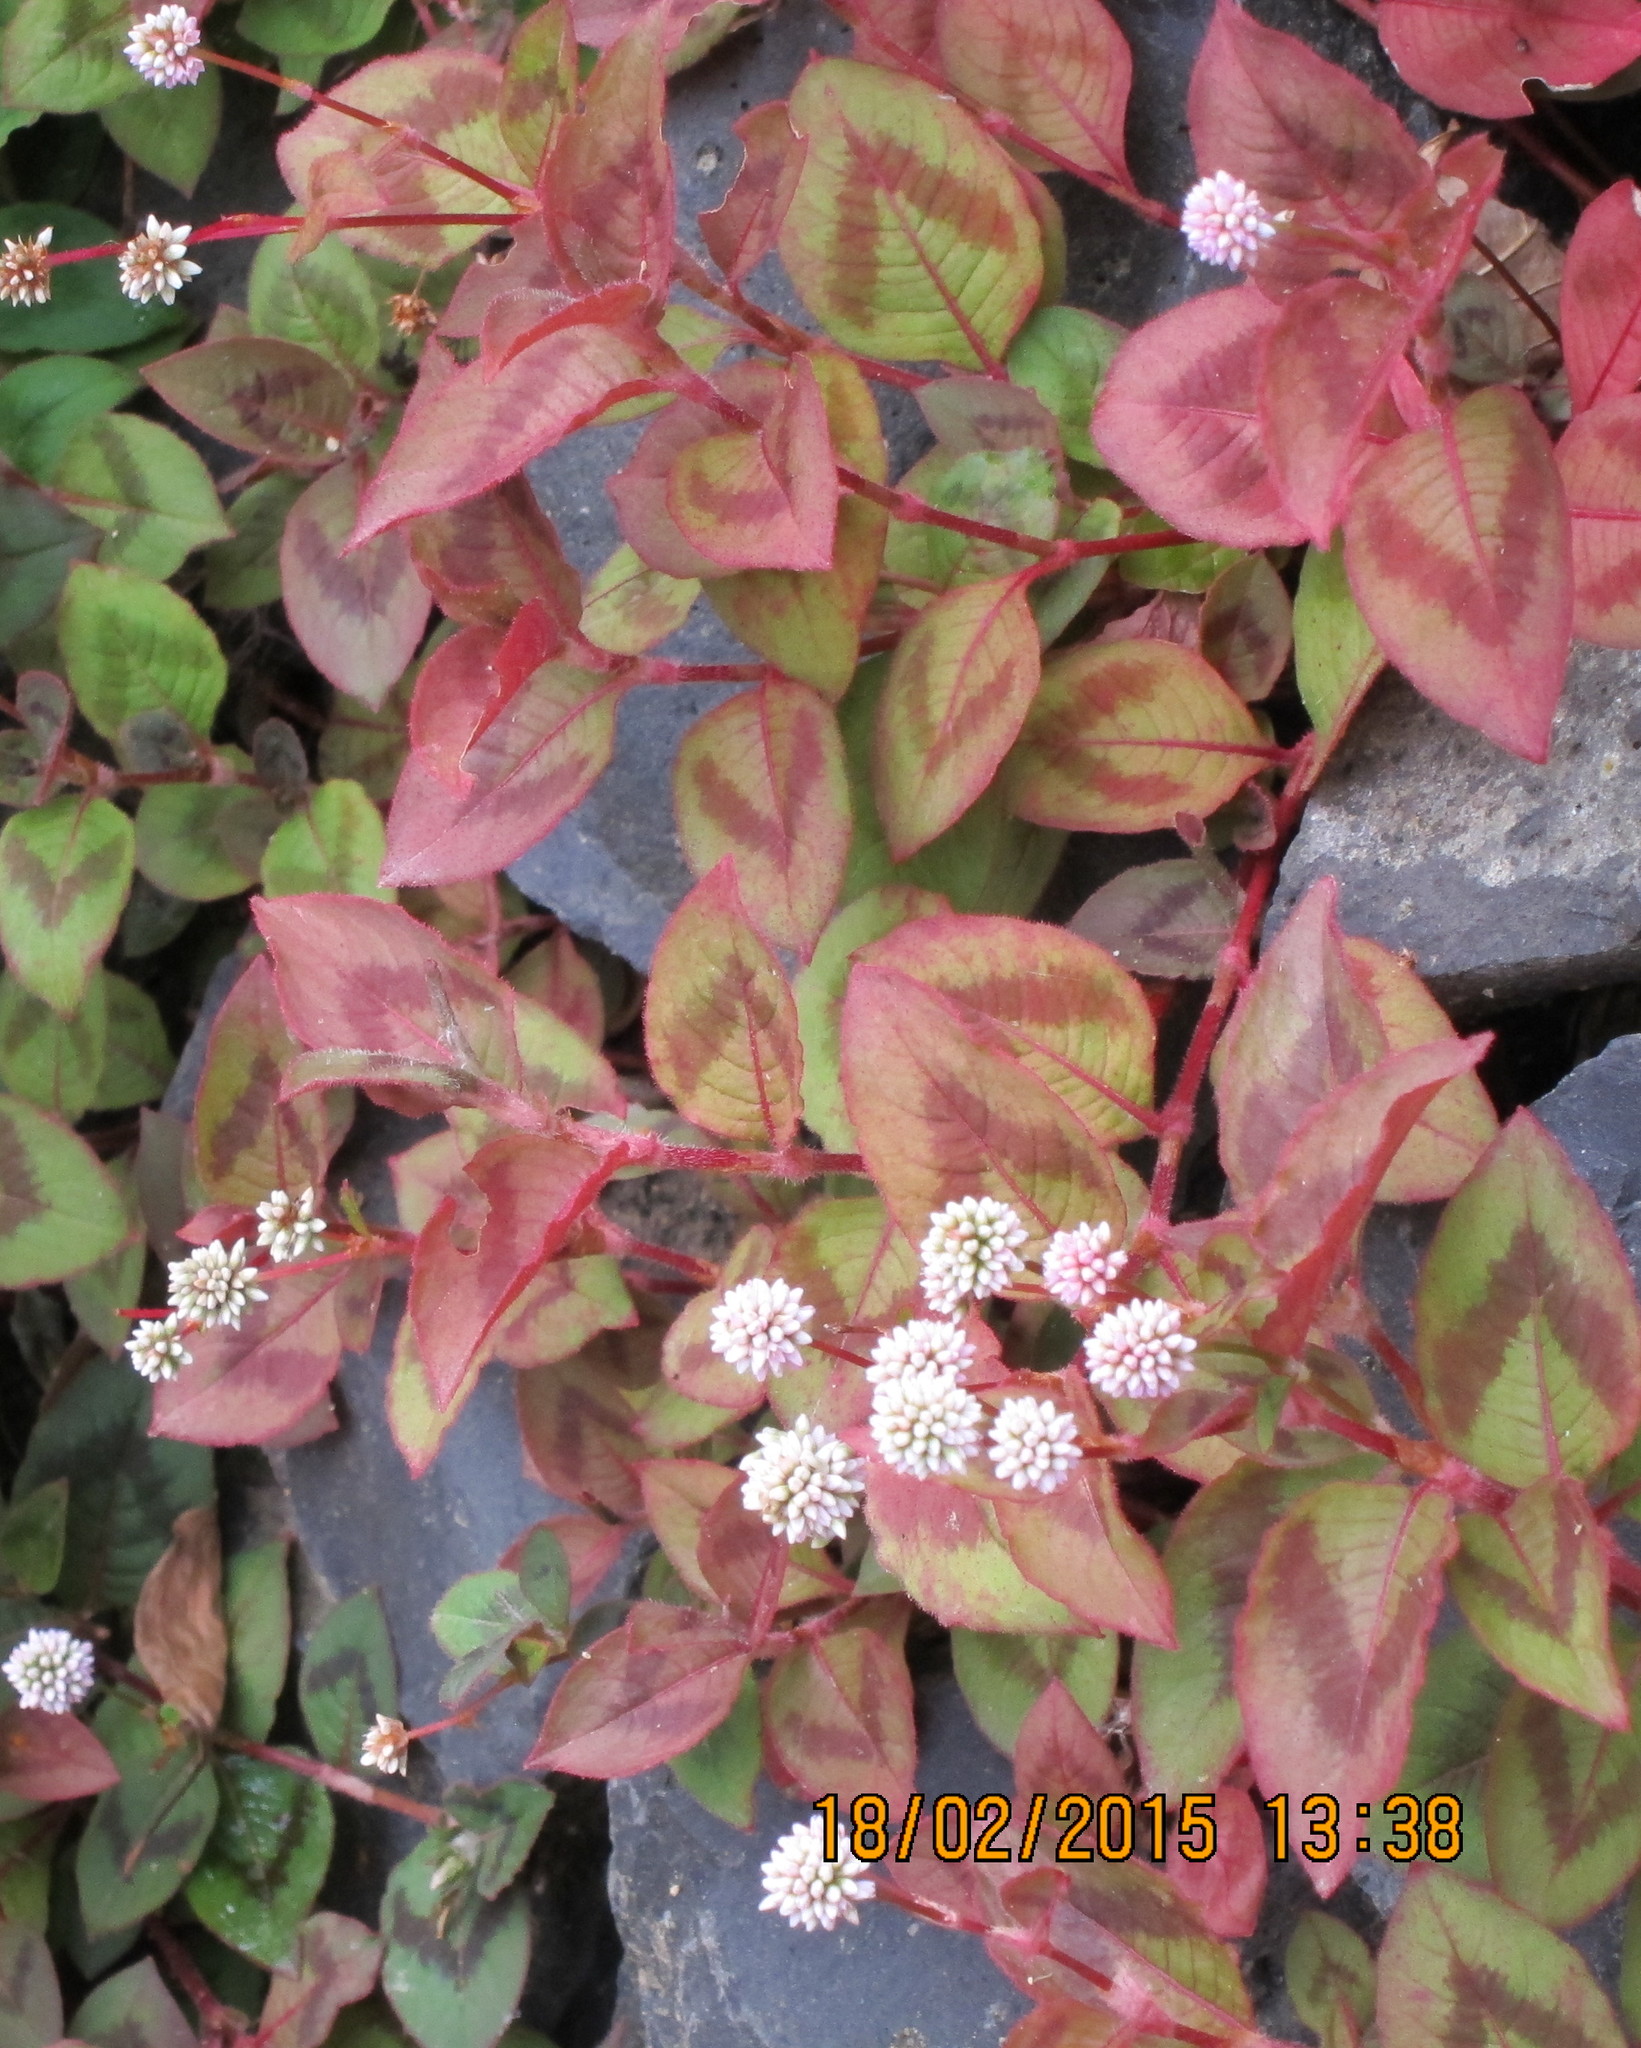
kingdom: Plantae
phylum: Tracheophyta
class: Magnoliopsida
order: Caryophyllales
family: Polygonaceae
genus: Persicaria
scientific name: Persicaria capitata
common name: Pinkhead smartweed
